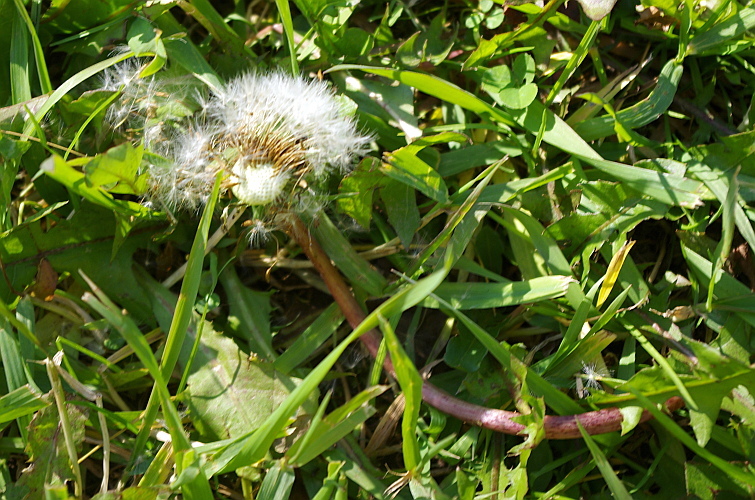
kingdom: Plantae
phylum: Tracheophyta
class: Magnoliopsida
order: Asterales
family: Asteraceae
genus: Taraxacum
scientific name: Taraxacum officinale
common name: Common dandelion
